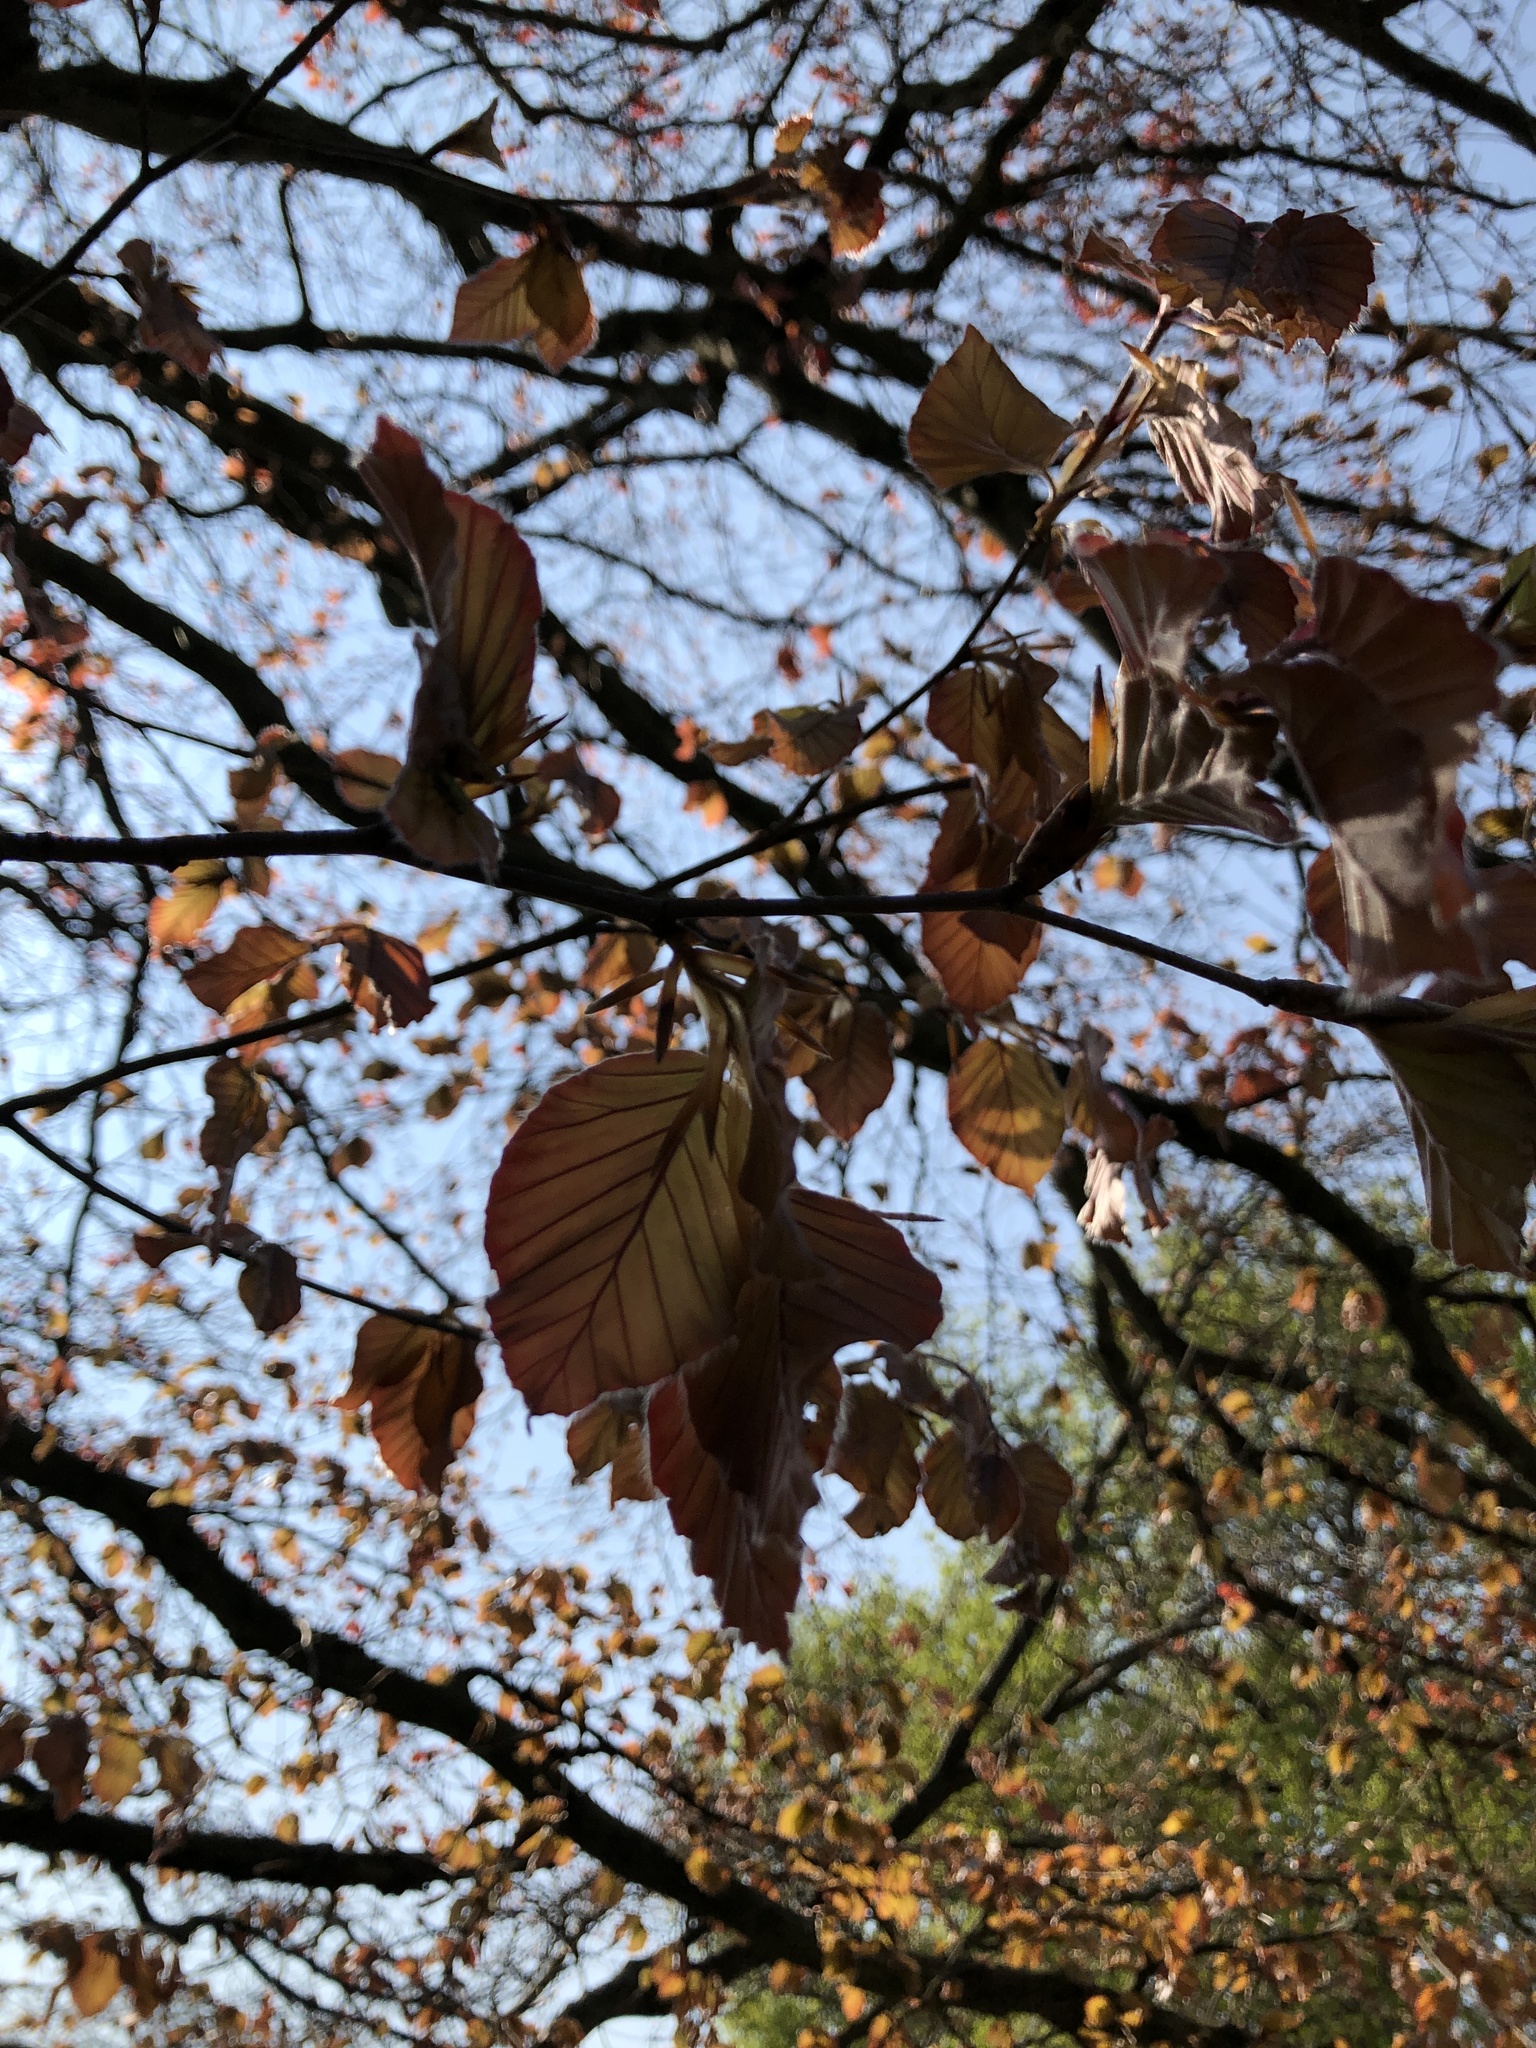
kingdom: Plantae
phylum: Tracheophyta
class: Magnoliopsida
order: Fagales
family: Fagaceae
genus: Fagus
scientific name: Fagus sylvatica
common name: Beech
